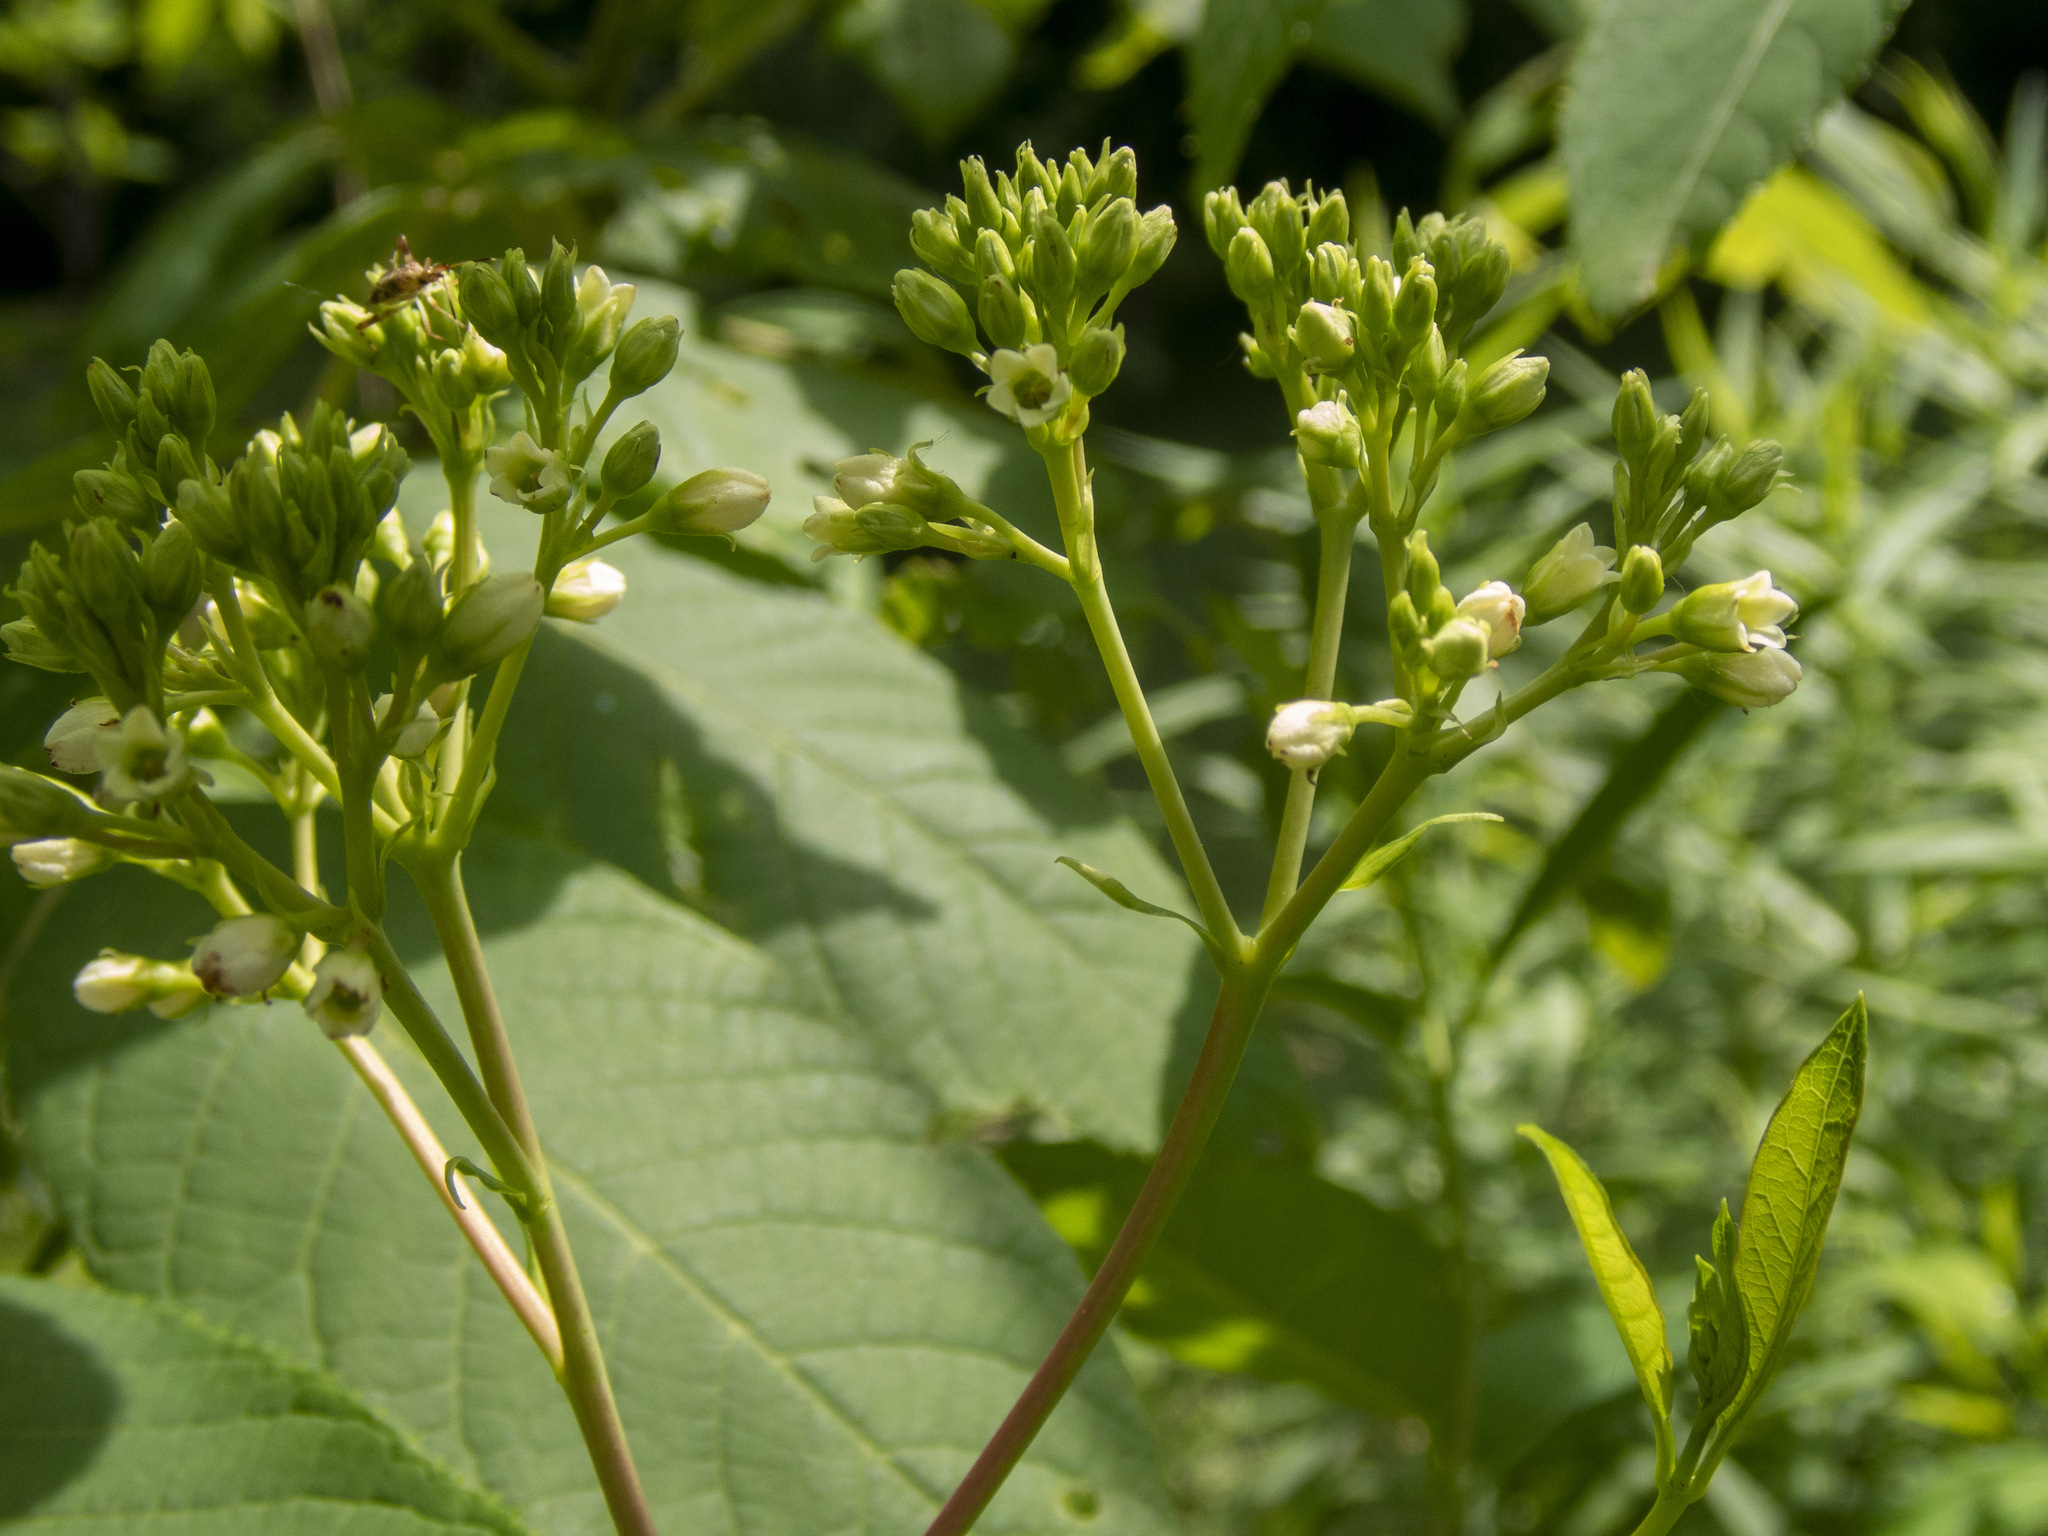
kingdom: Plantae
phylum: Tracheophyta
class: Magnoliopsida
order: Gentianales
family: Apocynaceae
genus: Apocynum
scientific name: Apocynum cannabinum
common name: Hemp dogbane
